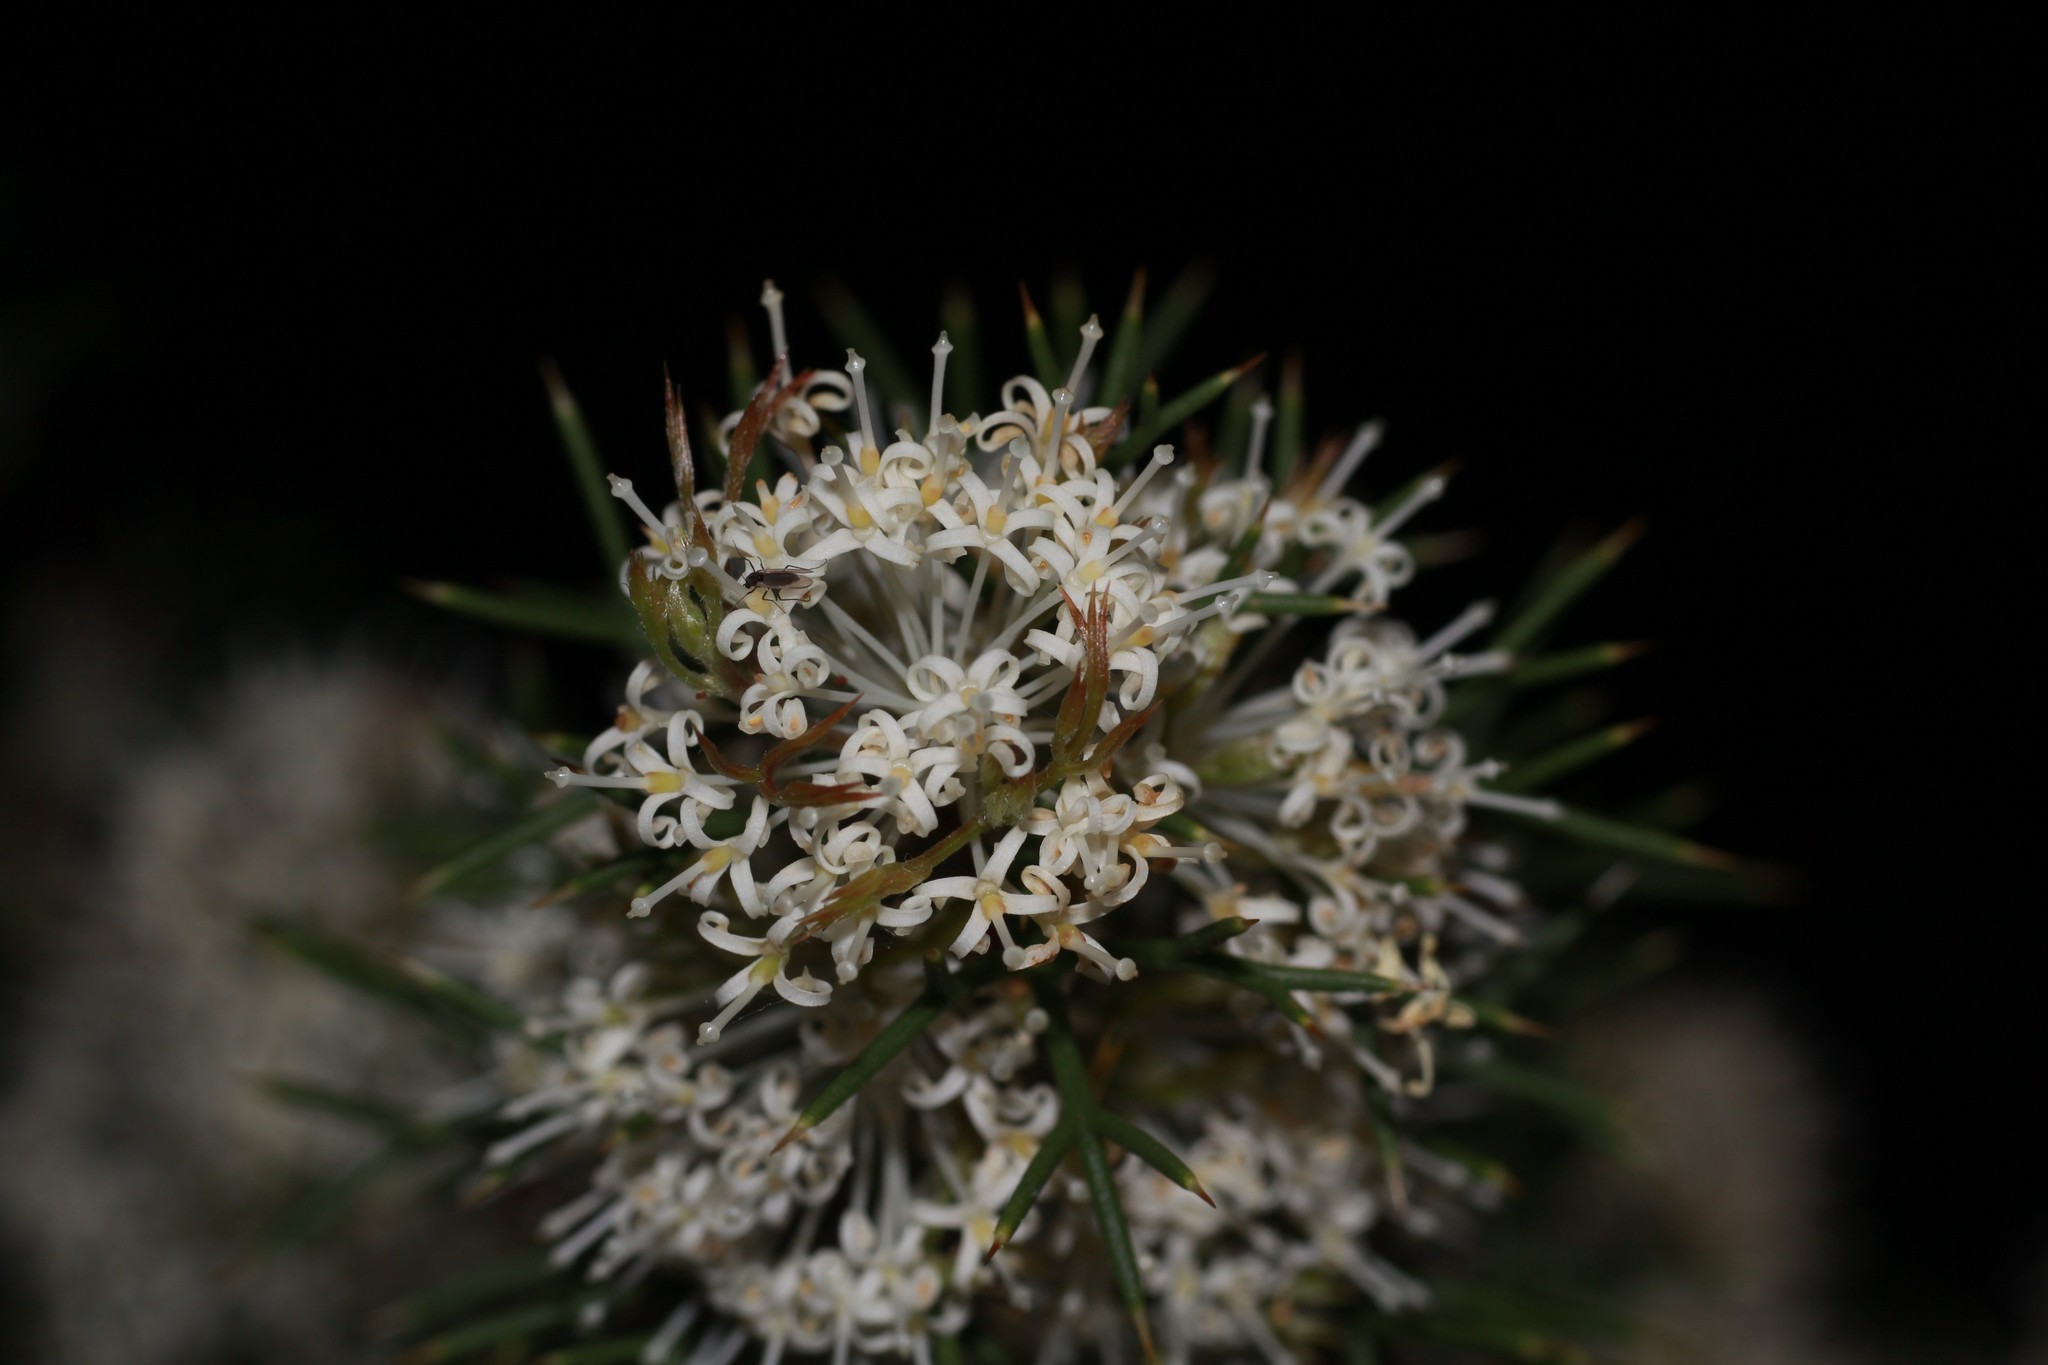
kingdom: Plantae
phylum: Tracheophyta
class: Magnoliopsida
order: Proteales
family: Proteaceae
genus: Hakea
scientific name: Hakea lissocarpha
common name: Honey bush
